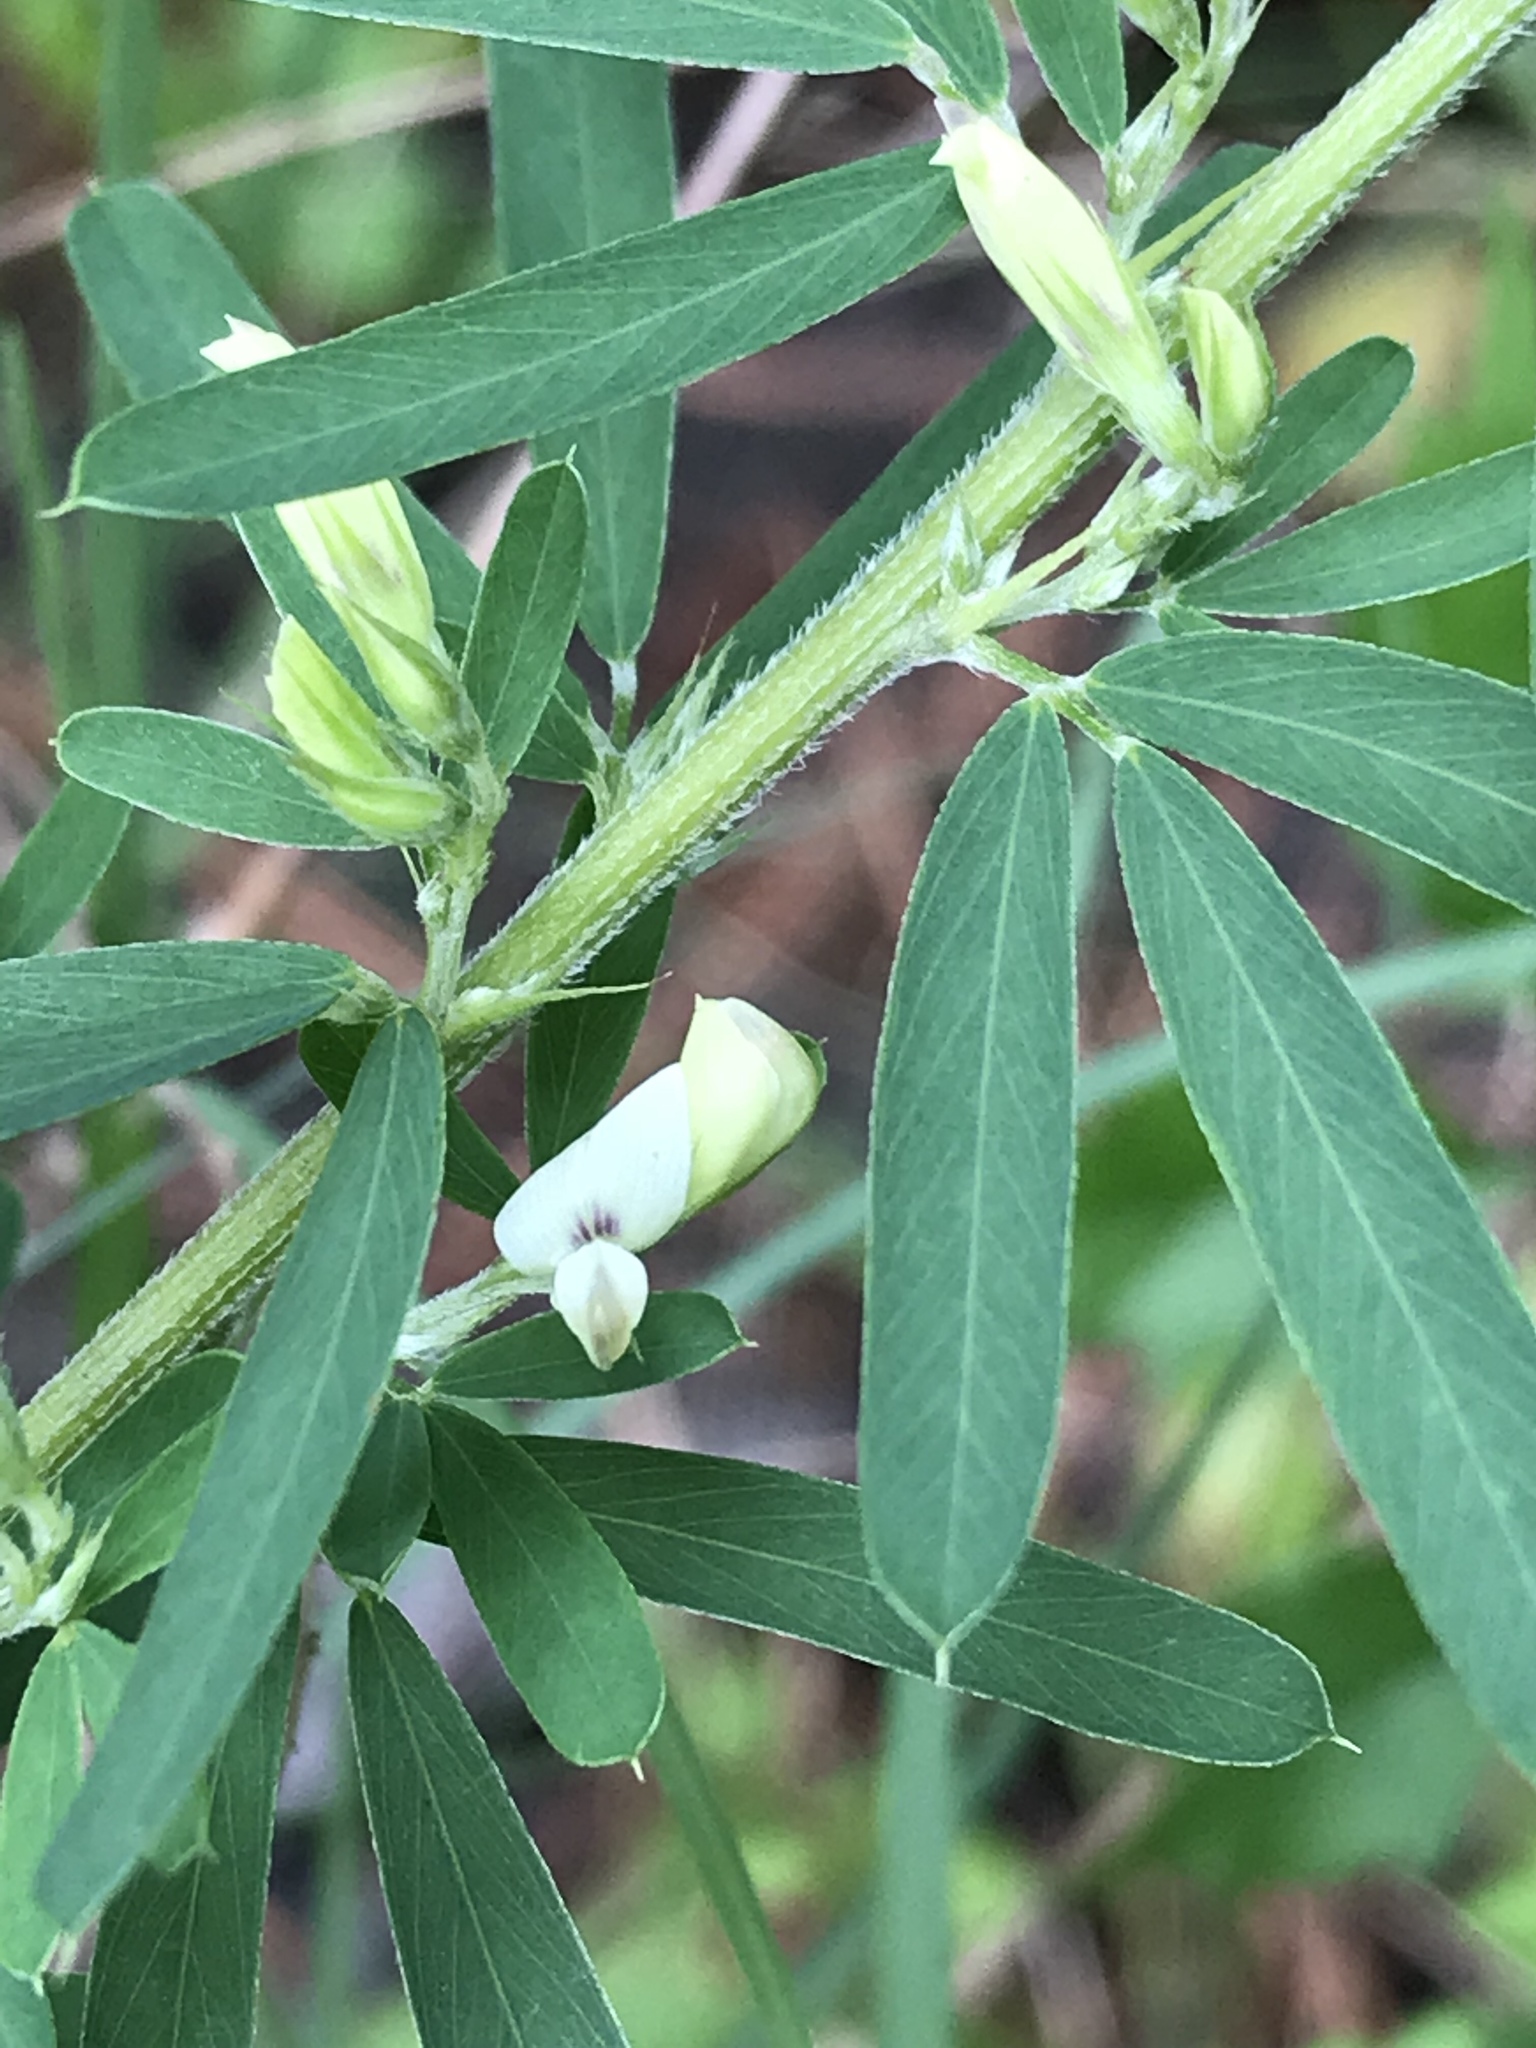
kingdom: Plantae
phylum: Tracheophyta
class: Magnoliopsida
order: Fabales
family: Fabaceae
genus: Lespedeza
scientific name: Lespedeza cuneata
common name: Chinese bush-clover
